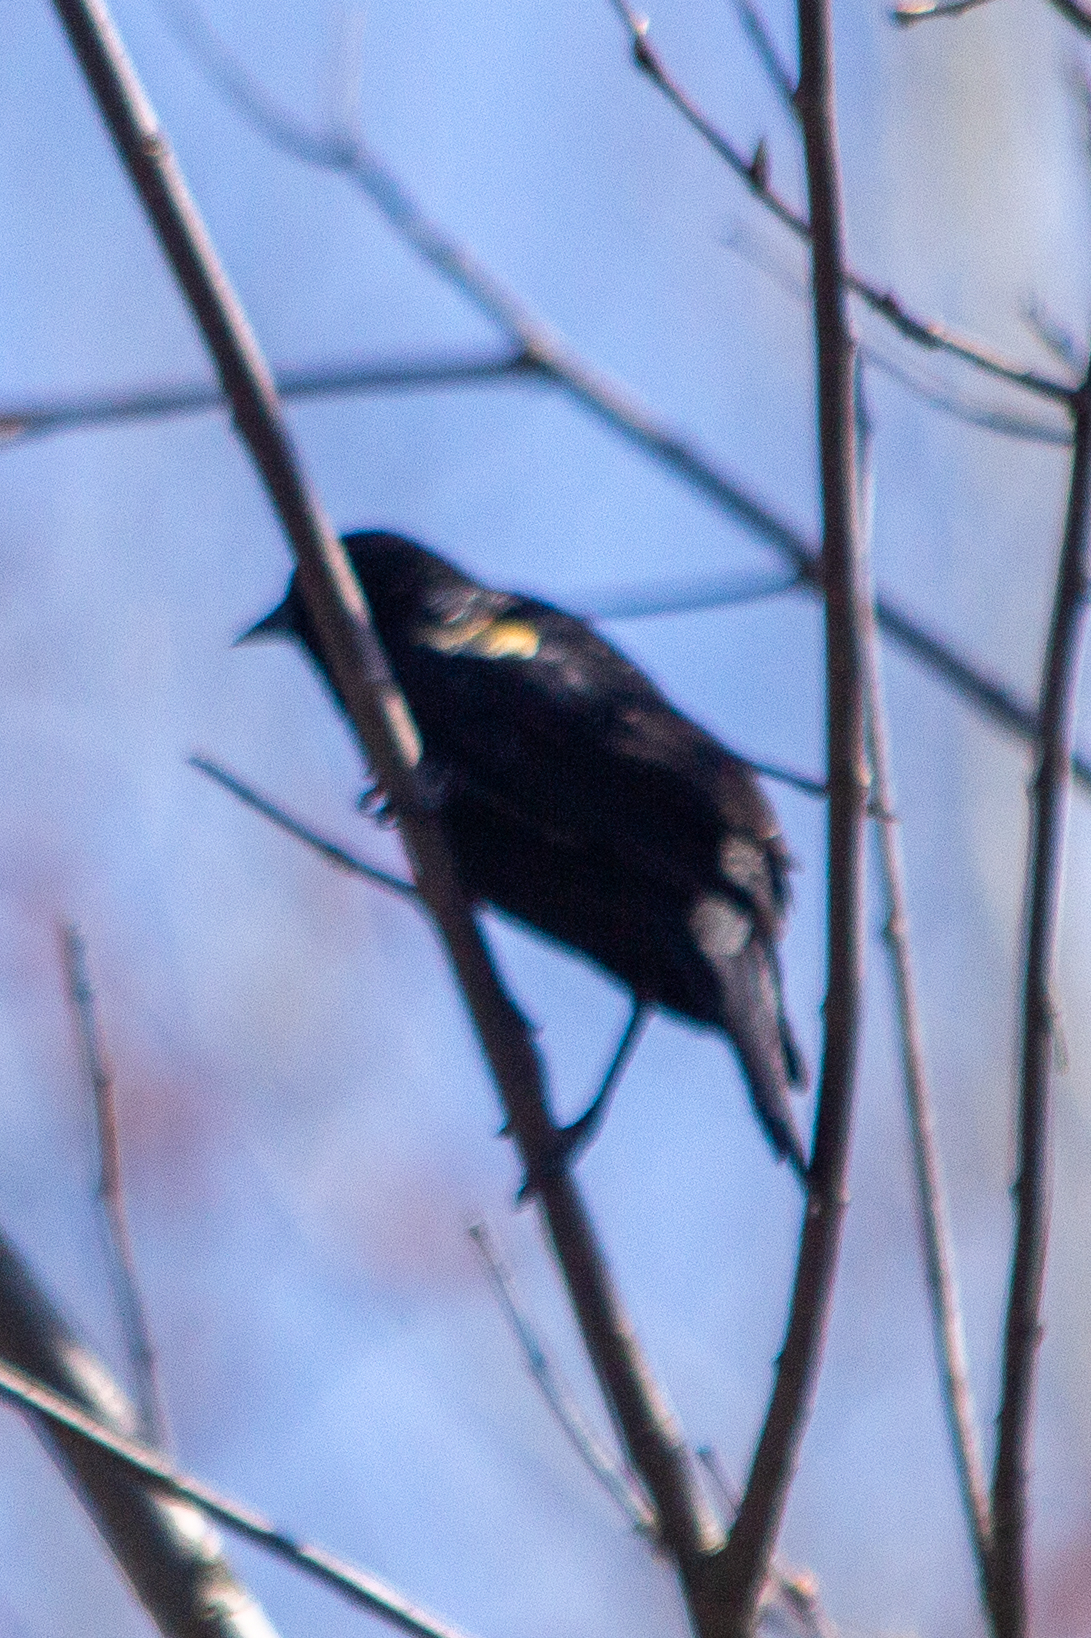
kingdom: Animalia
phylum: Chordata
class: Aves
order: Passeriformes
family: Icteridae
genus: Agelaius
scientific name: Agelaius phoeniceus
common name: Red-winged blackbird
